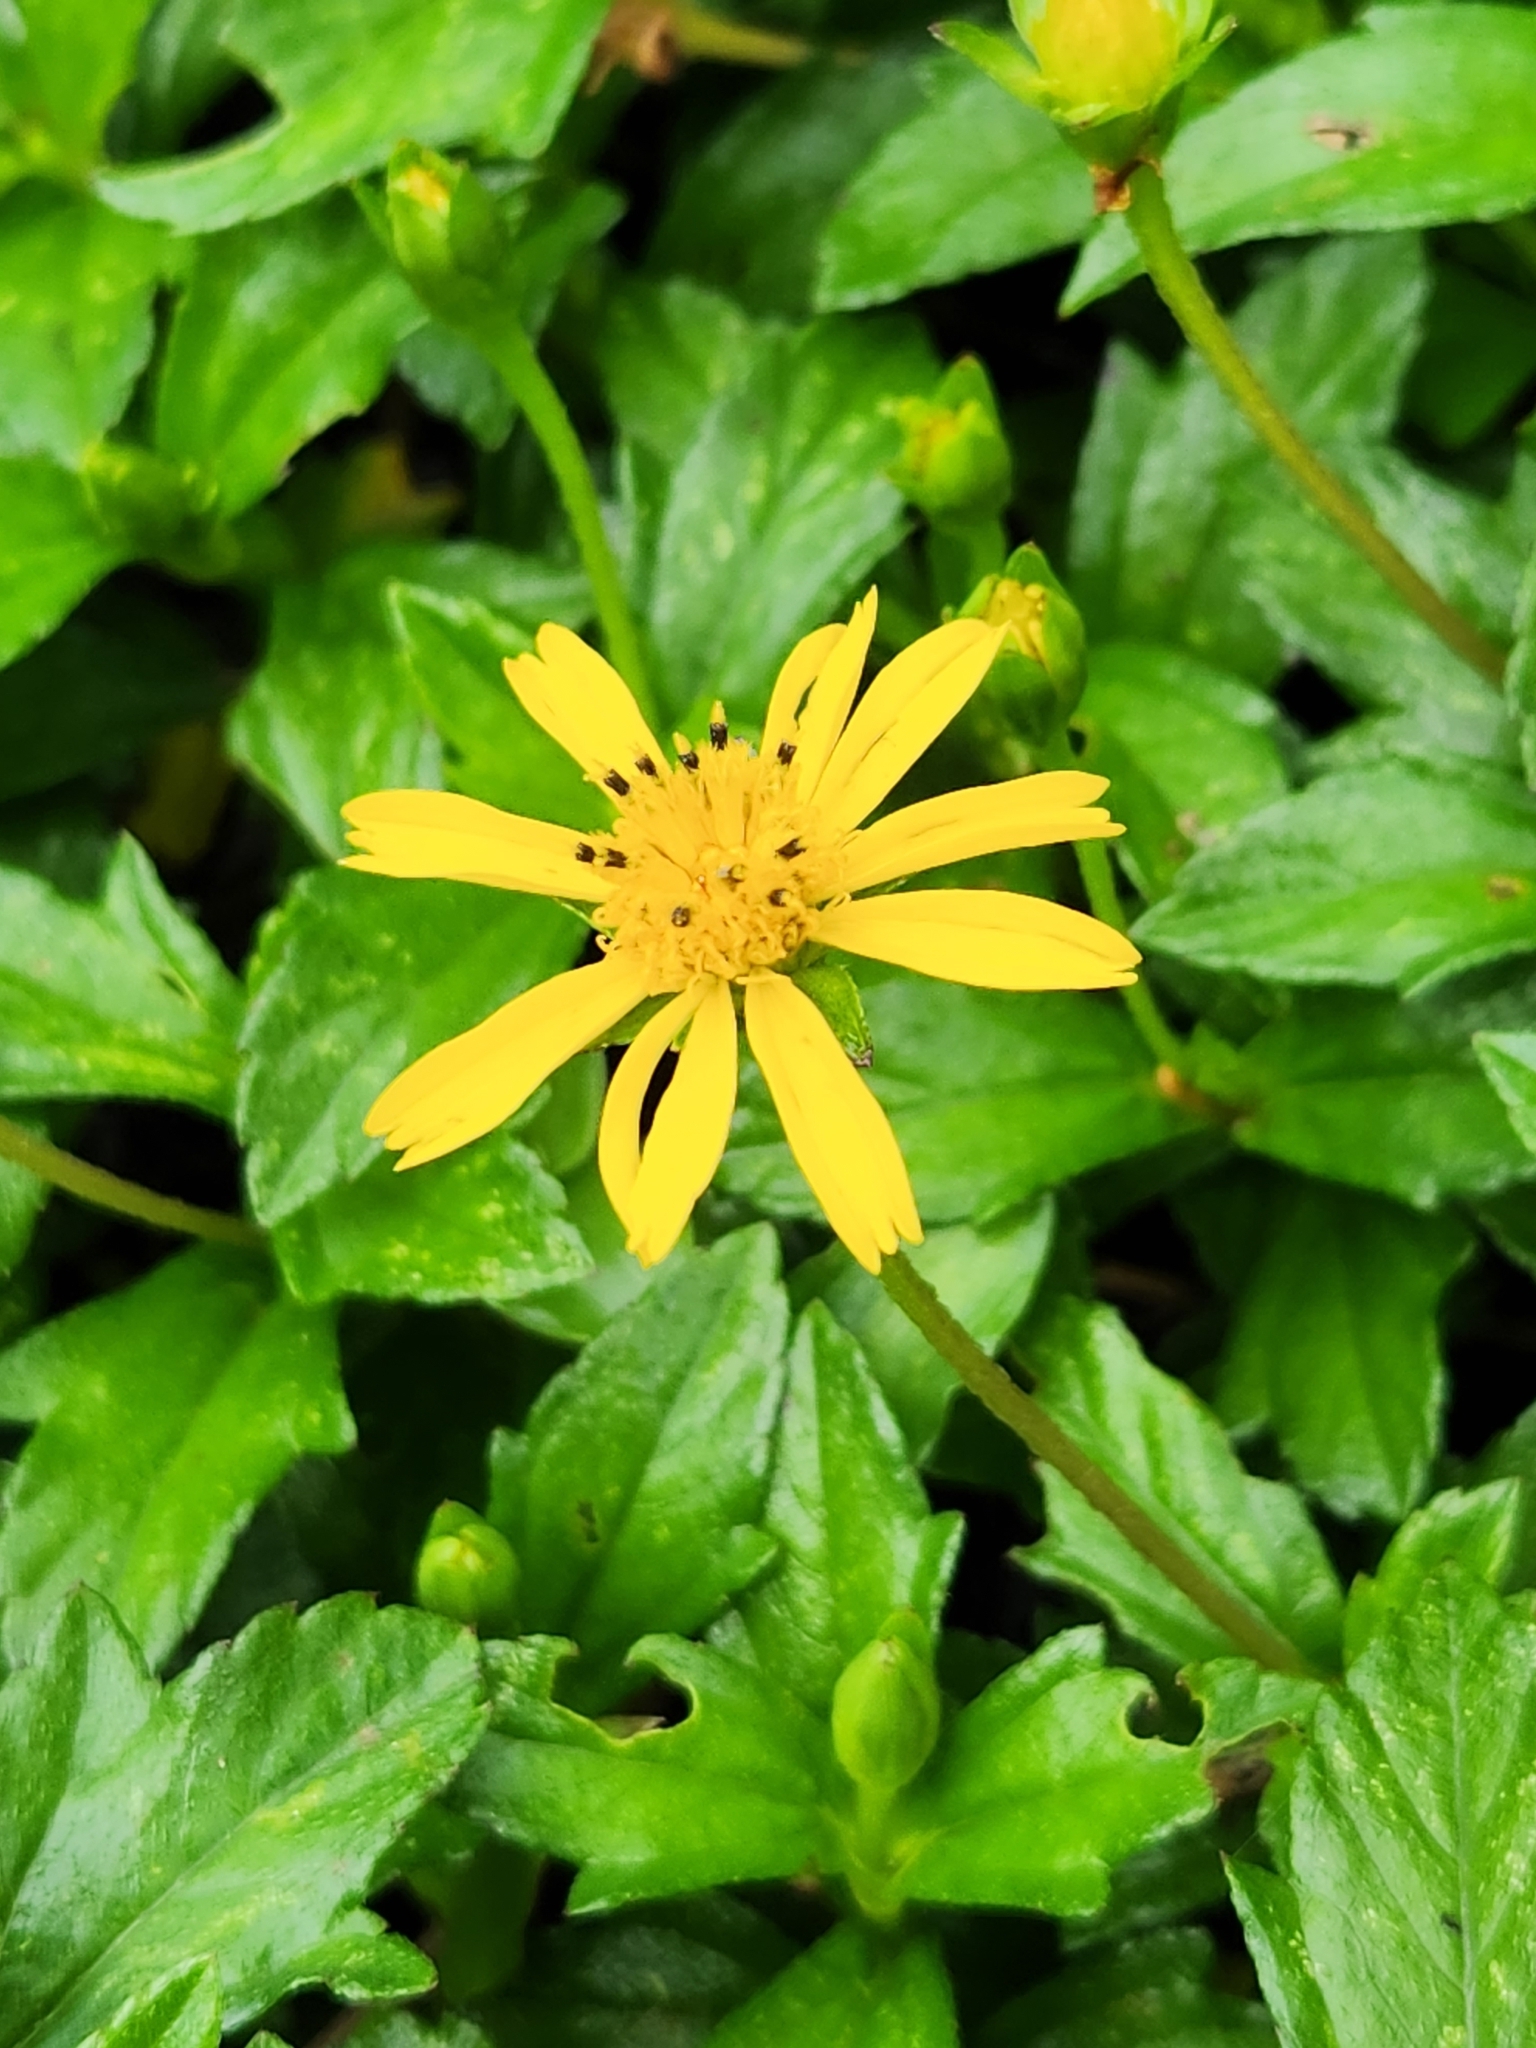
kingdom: Plantae
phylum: Tracheophyta
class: Magnoliopsida
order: Asterales
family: Asteraceae
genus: Sphagneticola
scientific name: Sphagneticola trilobata
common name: Bay biscayne creeping-oxeye
